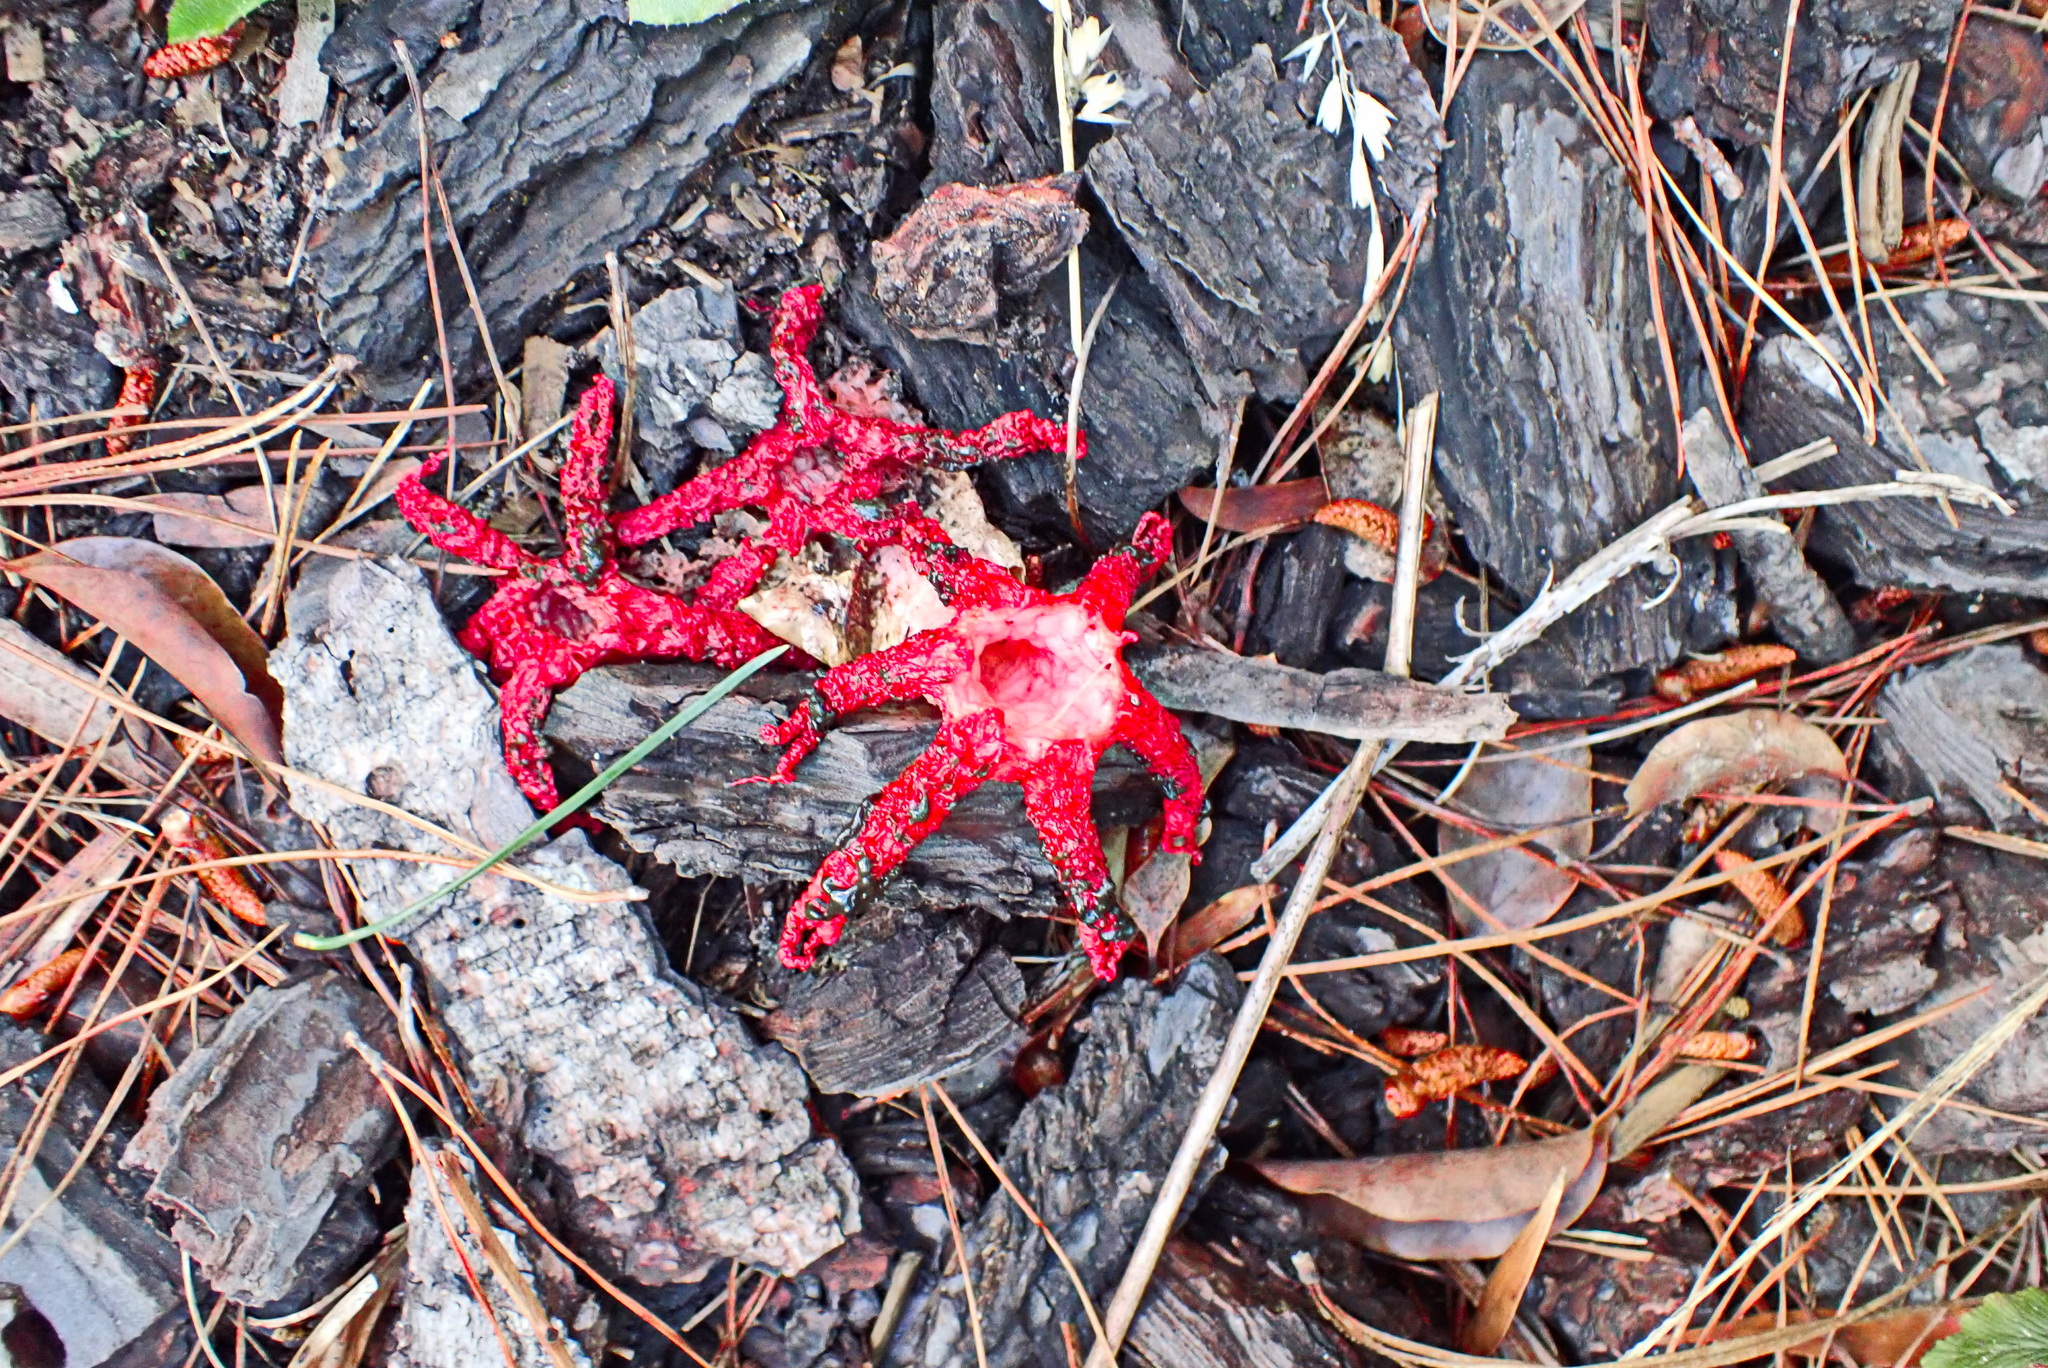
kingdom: Fungi
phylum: Basidiomycota
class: Agaricomycetes
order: Phallales
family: Phallaceae
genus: Clathrus
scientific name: Clathrus archeri
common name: Devil's fingers
